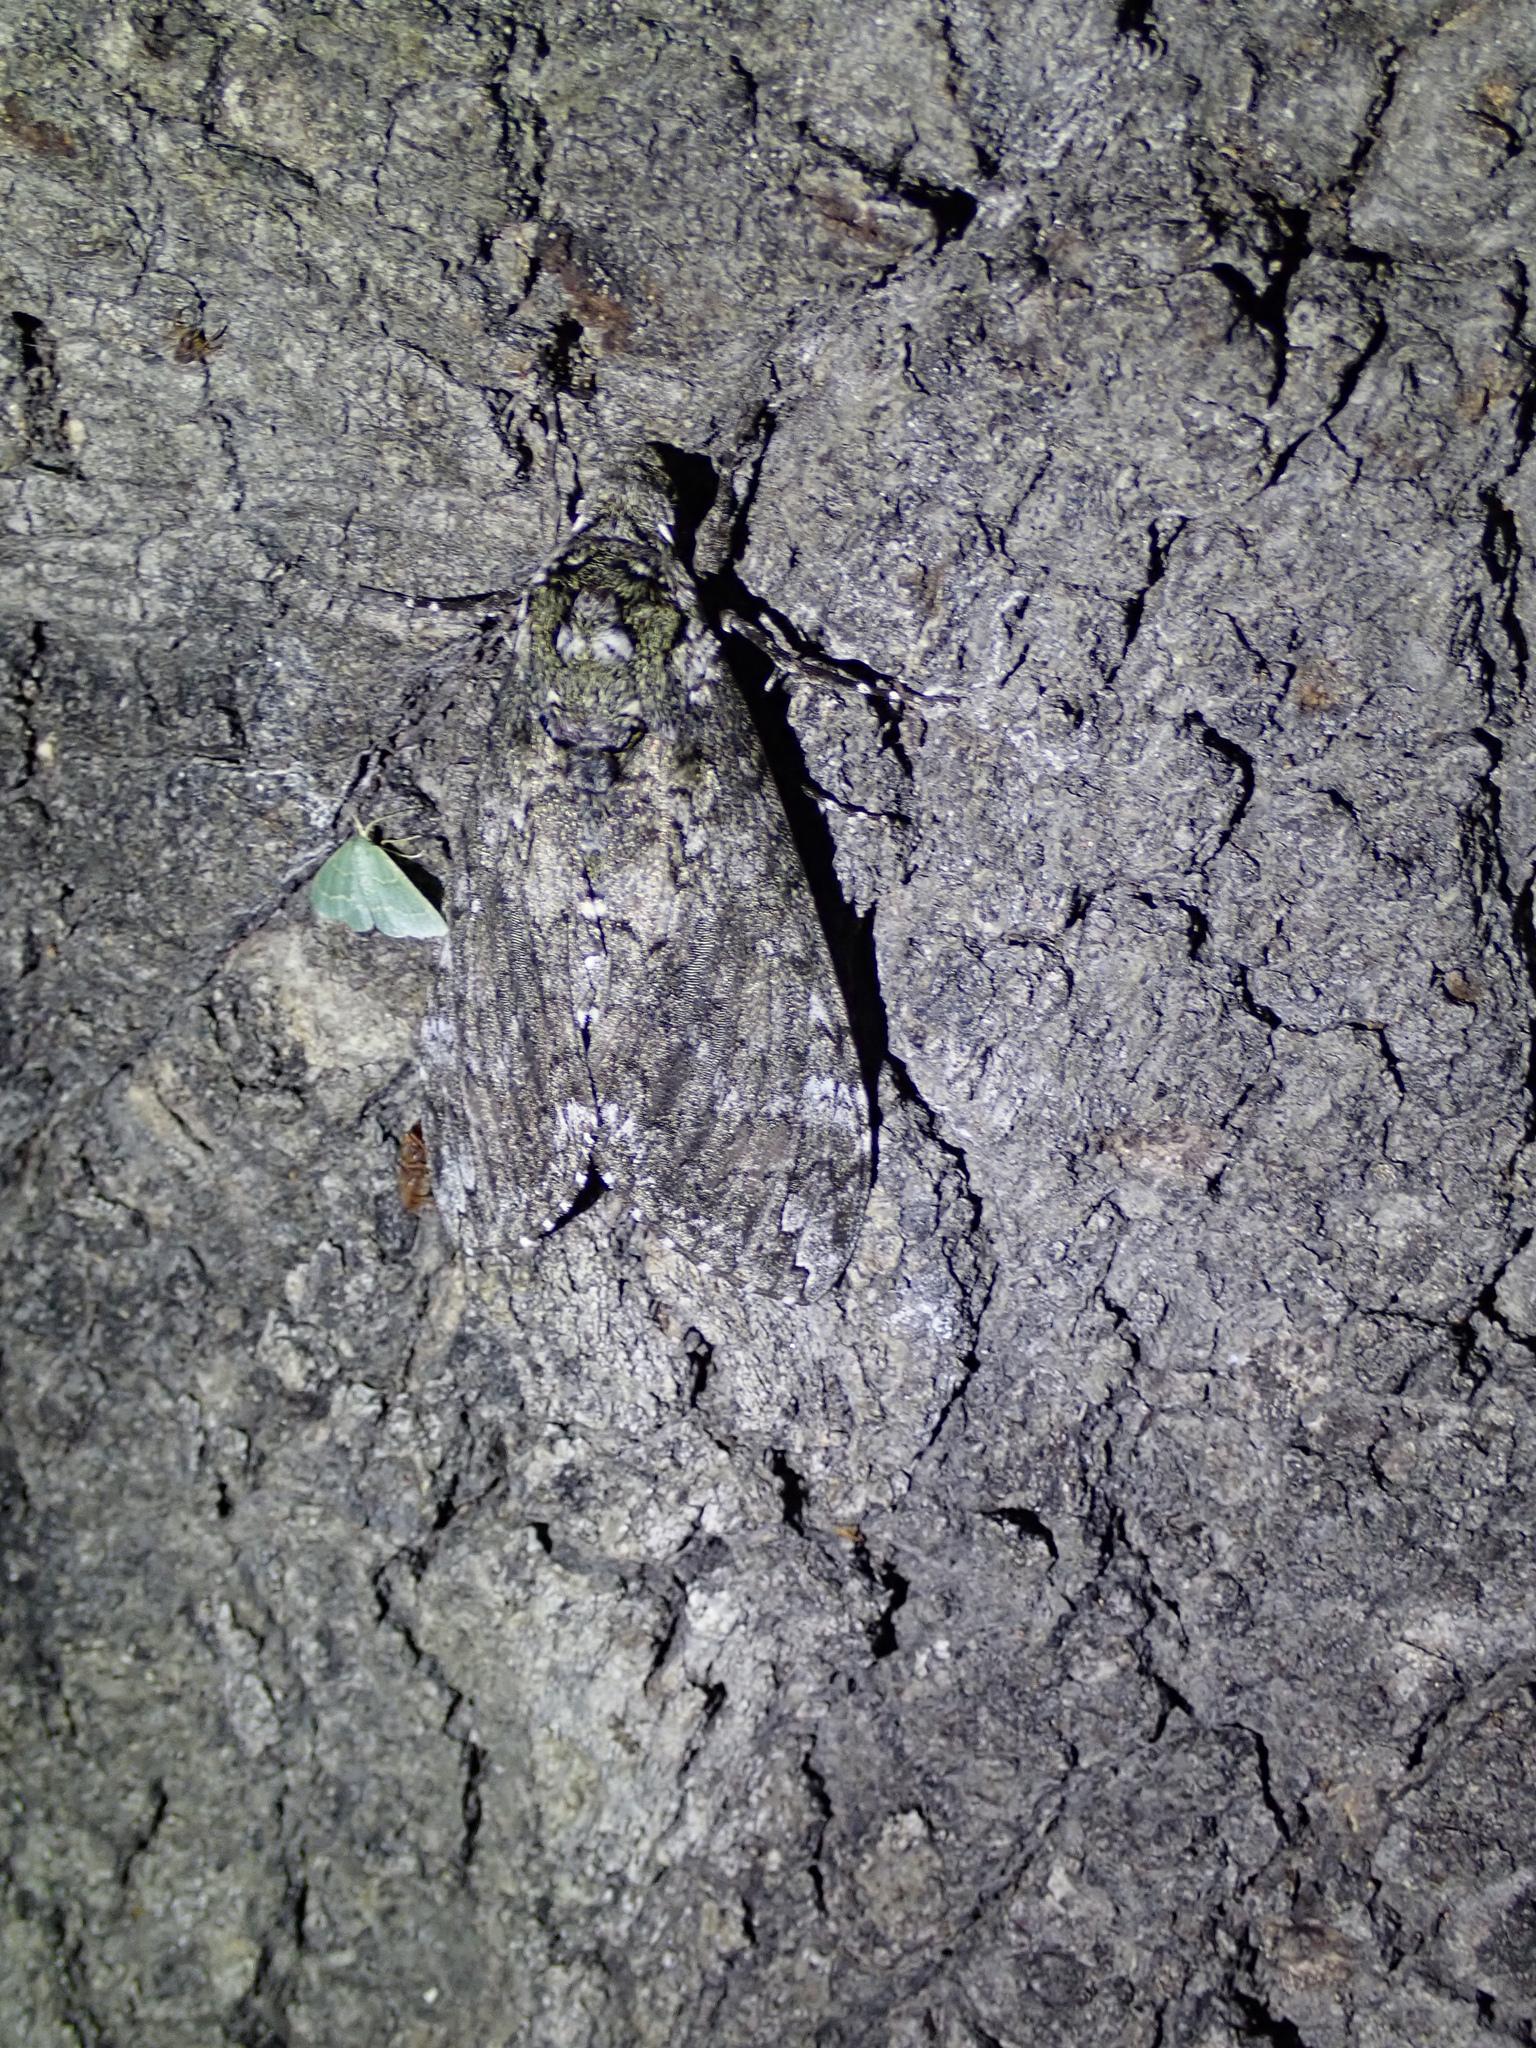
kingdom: Animalia
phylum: Arthropoda
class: Insecta
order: Lepidoptera
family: Sphingidae
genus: Manduca
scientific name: Manduca sexta
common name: Carolina sphinx
